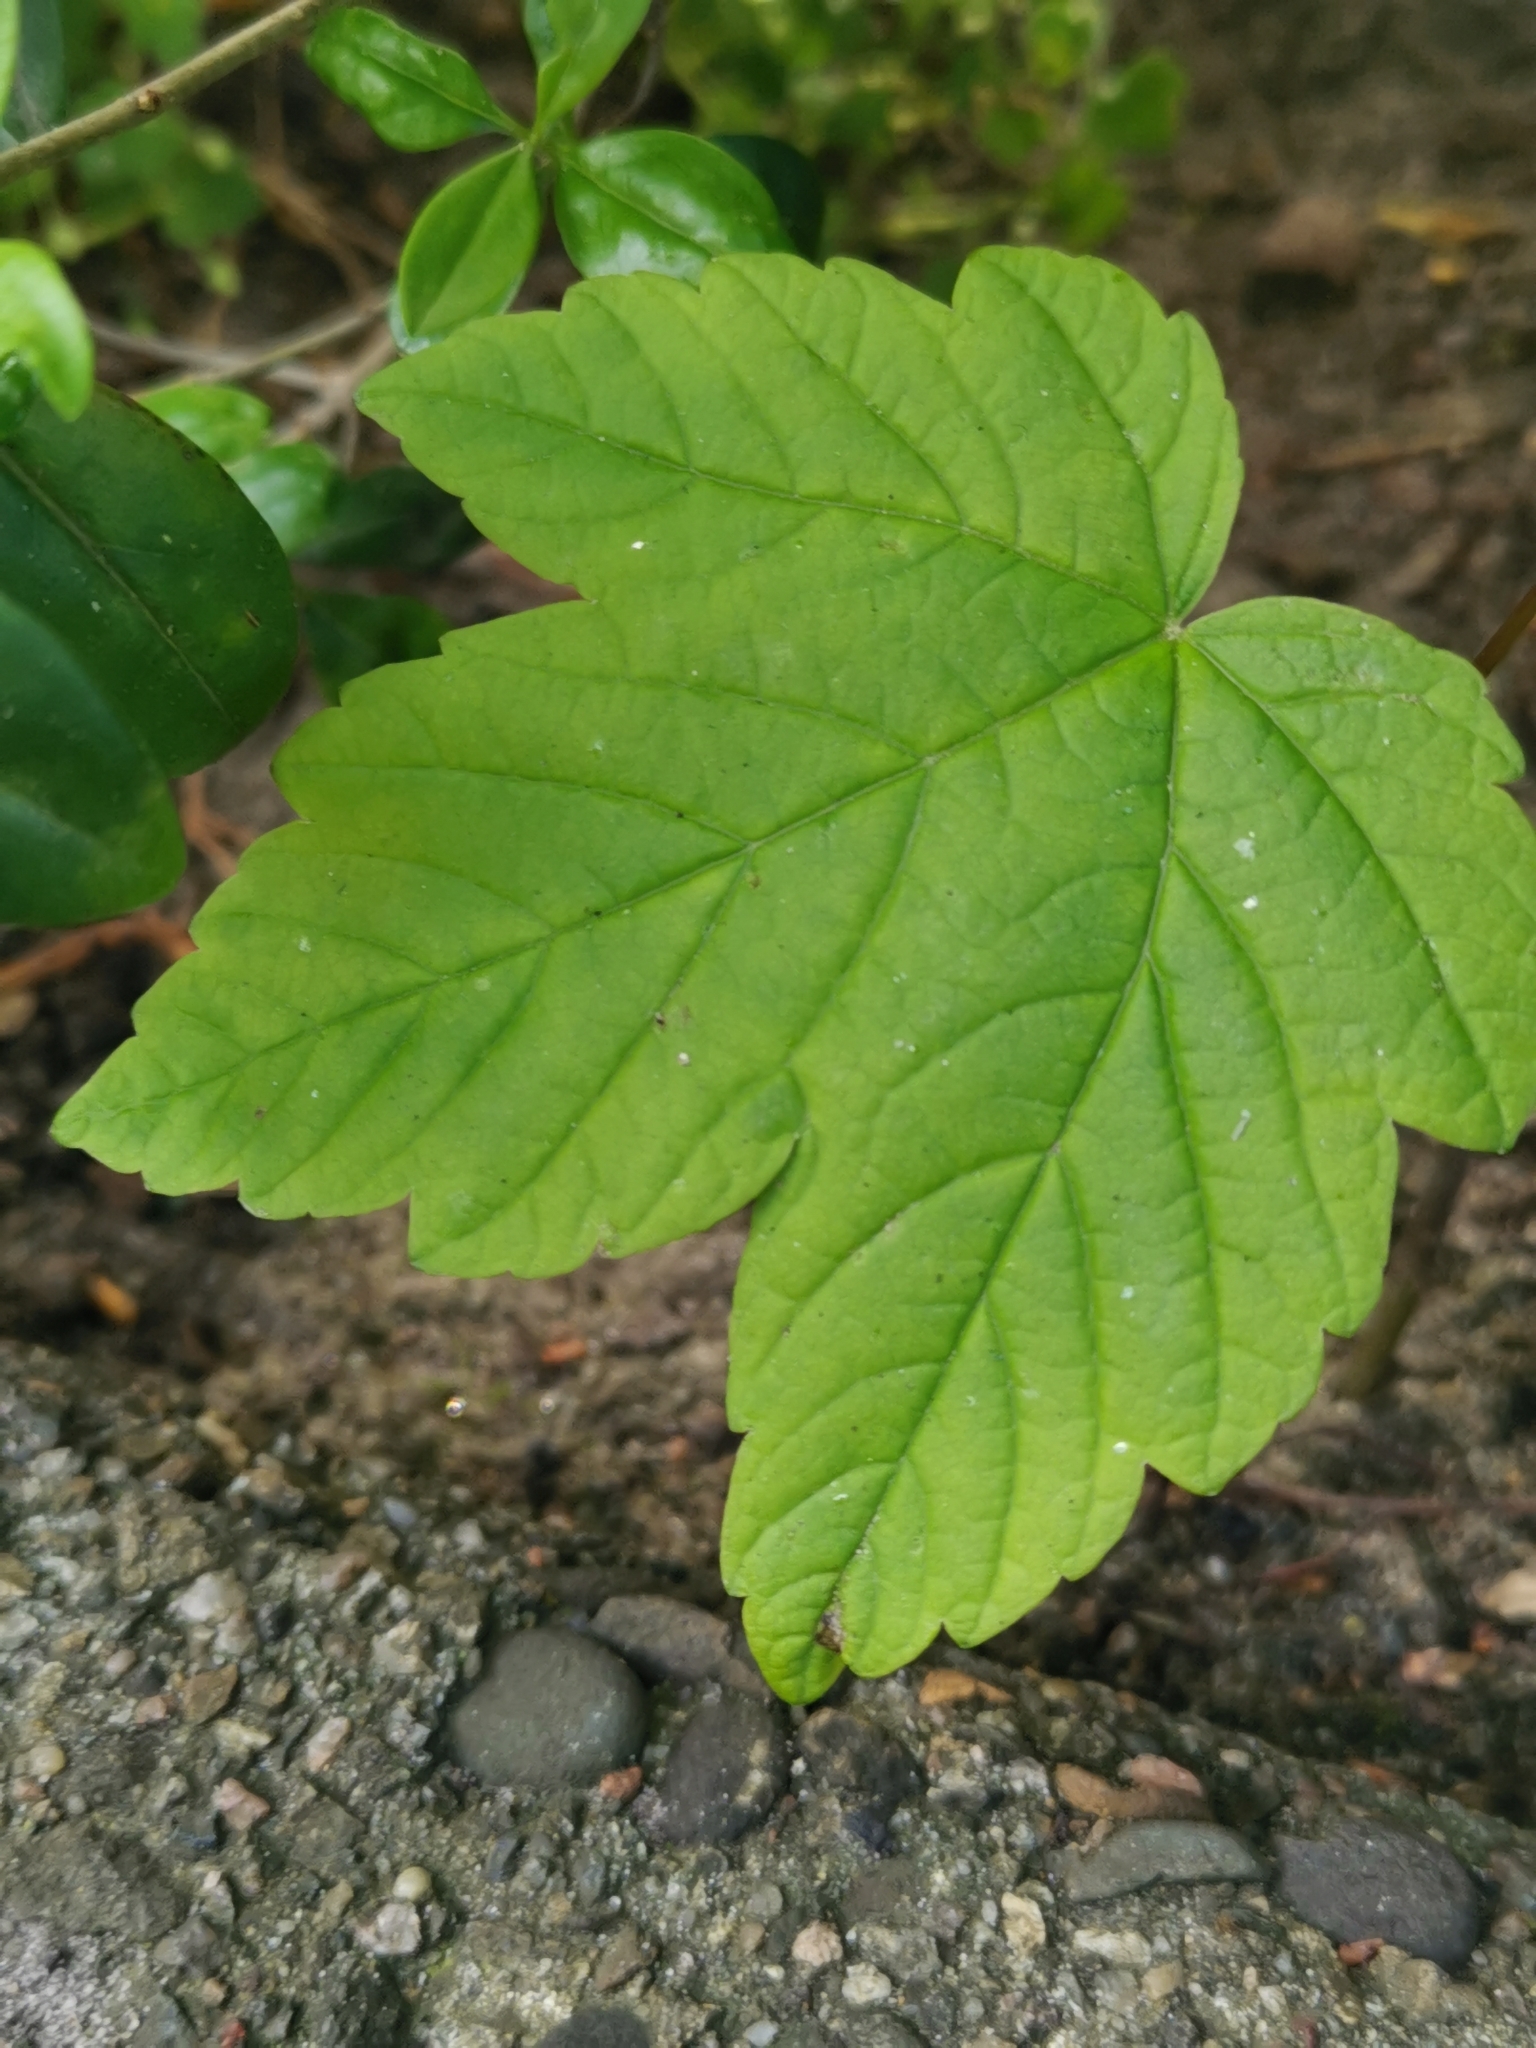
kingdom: Plantae
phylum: Tracheophyta
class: Magnoliopsida
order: Sapindales
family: Sapindaceae
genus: Acer
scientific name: Acer pseudoplatanus
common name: Sycamore
